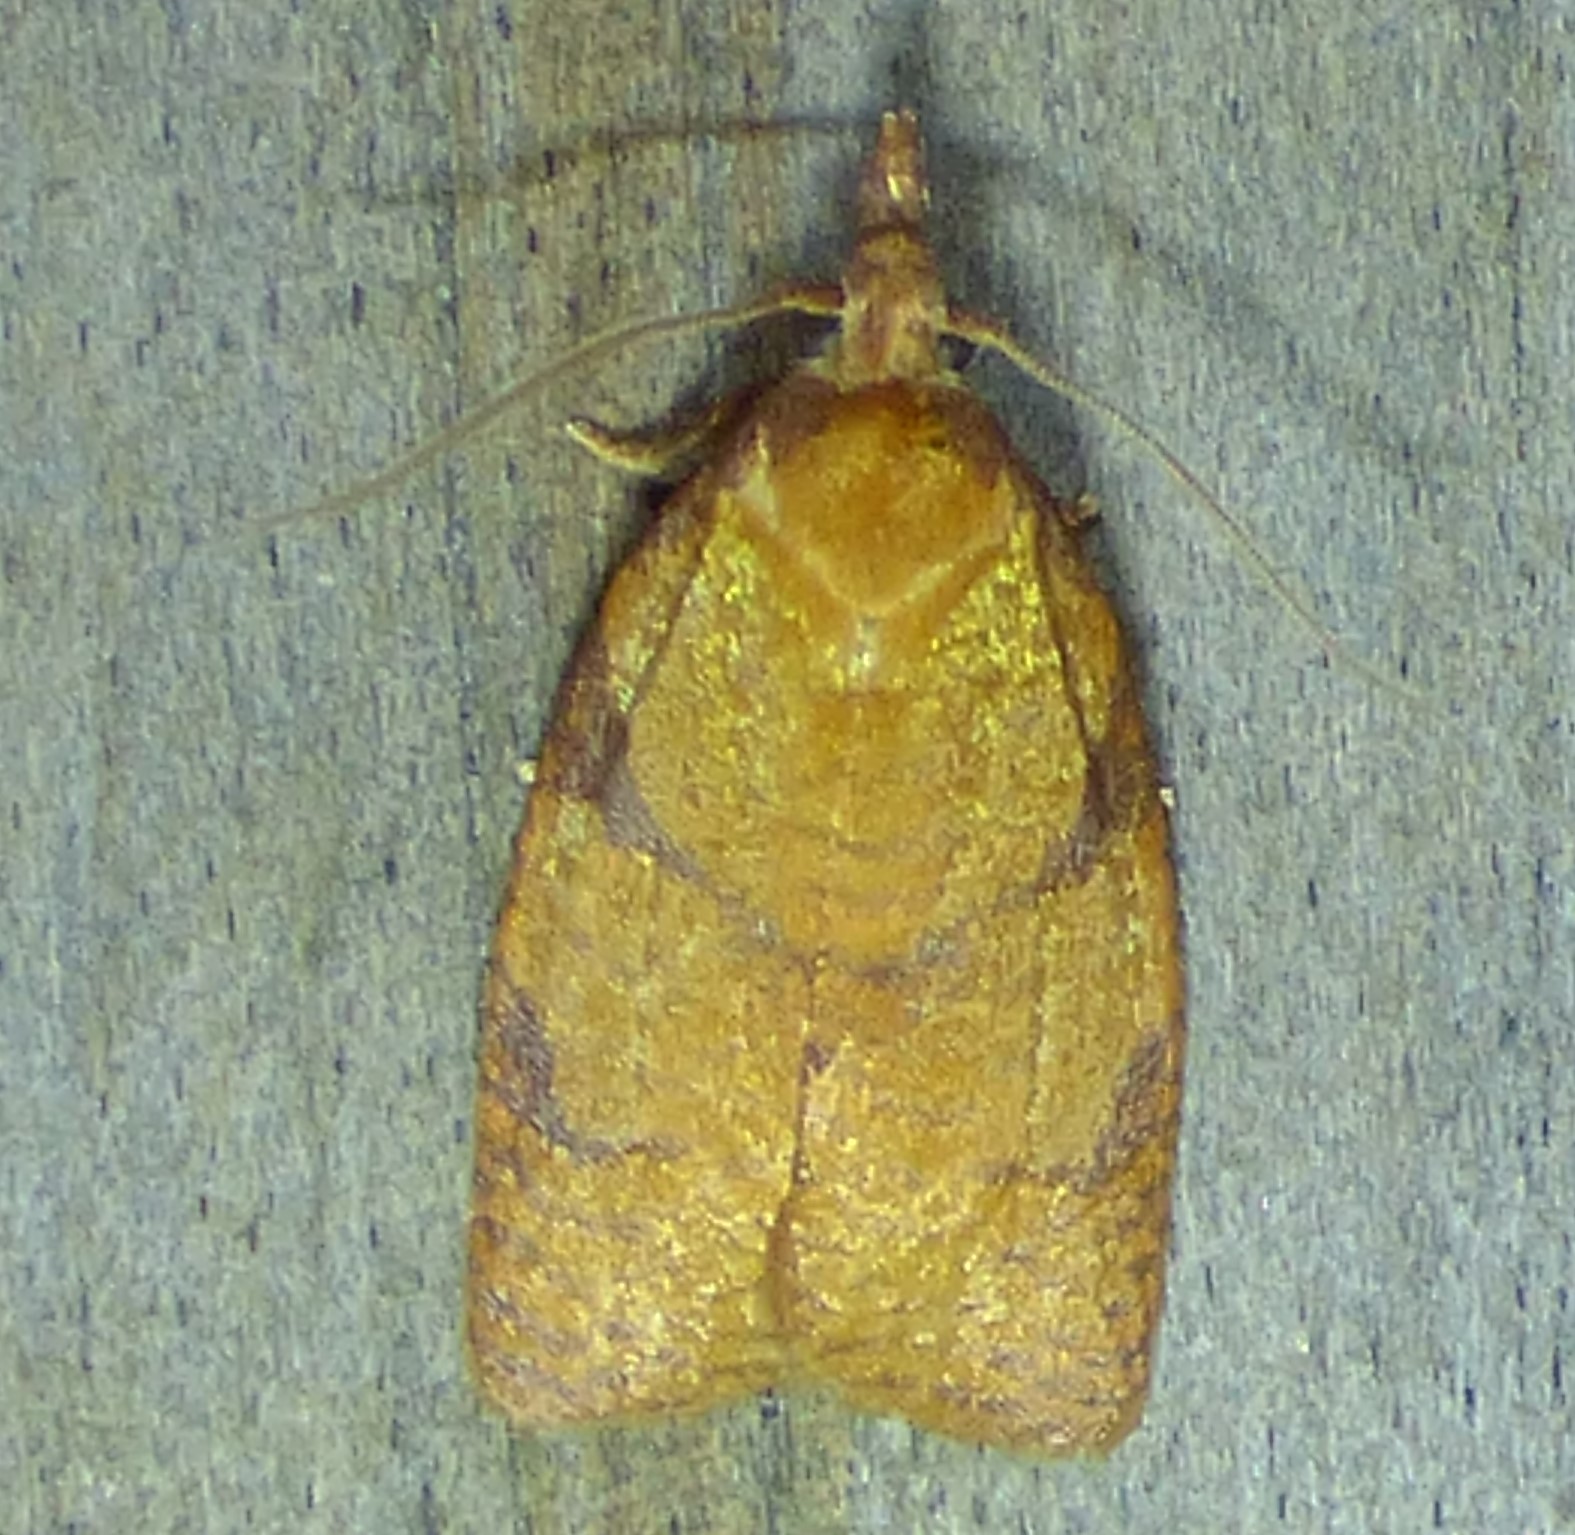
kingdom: Animalia
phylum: Arthropoda
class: Insecta
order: Lepidoptera
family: Tortricidae
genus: Cenopis
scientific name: Cenopis directana
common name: Chokecherry leafroller moth
